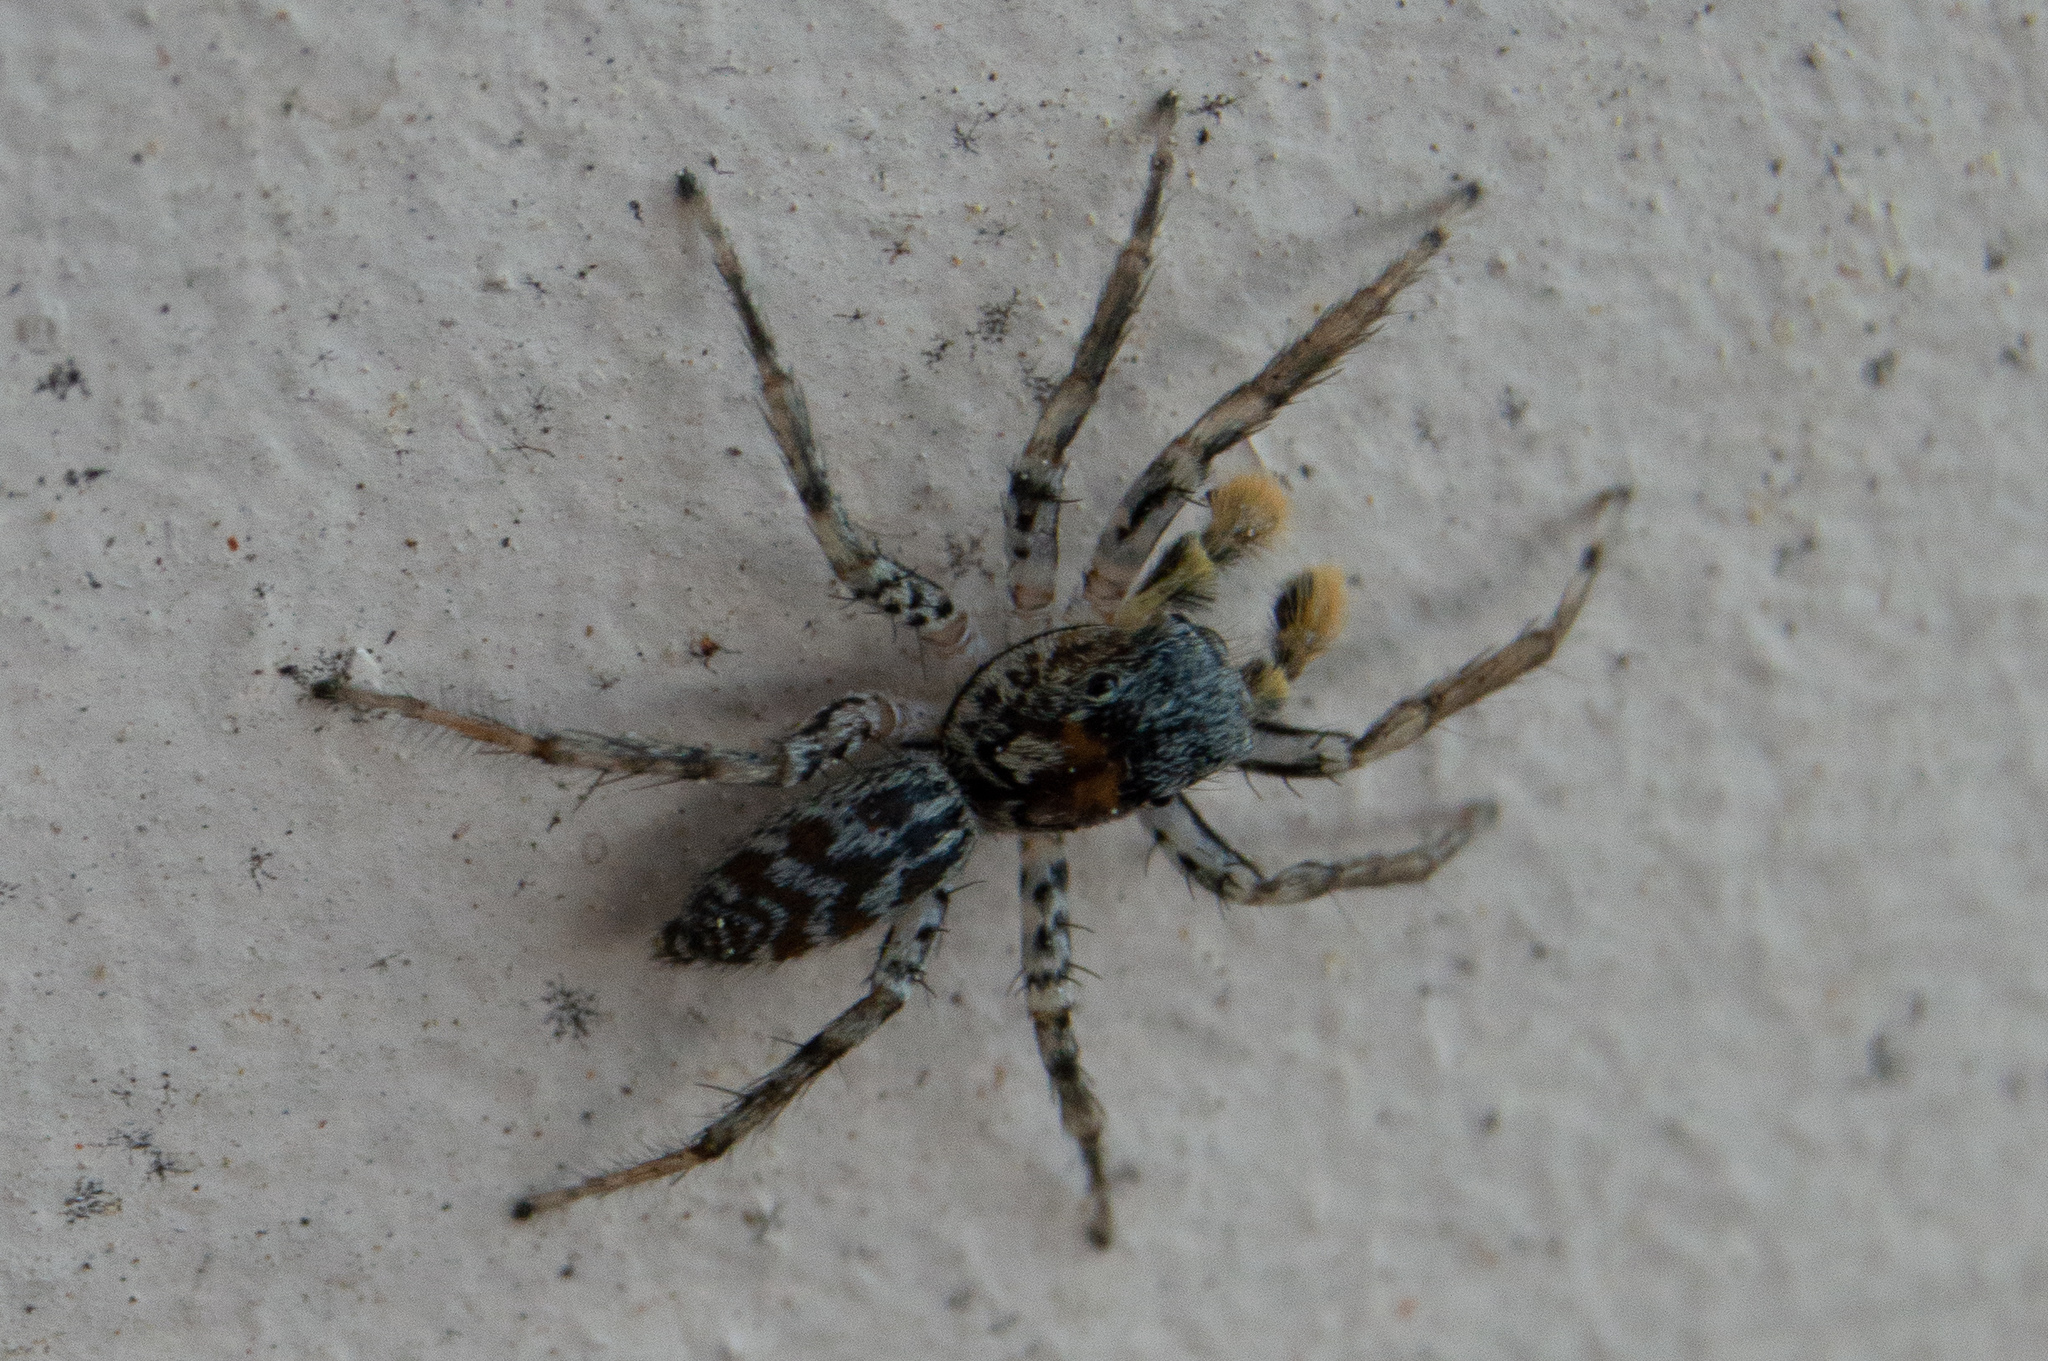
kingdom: Animalia
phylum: Arthropoda
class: Arachnida
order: Araneae
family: Salticidae
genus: Maevia
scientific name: Maevia inclemens
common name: Dimorphic jumper
